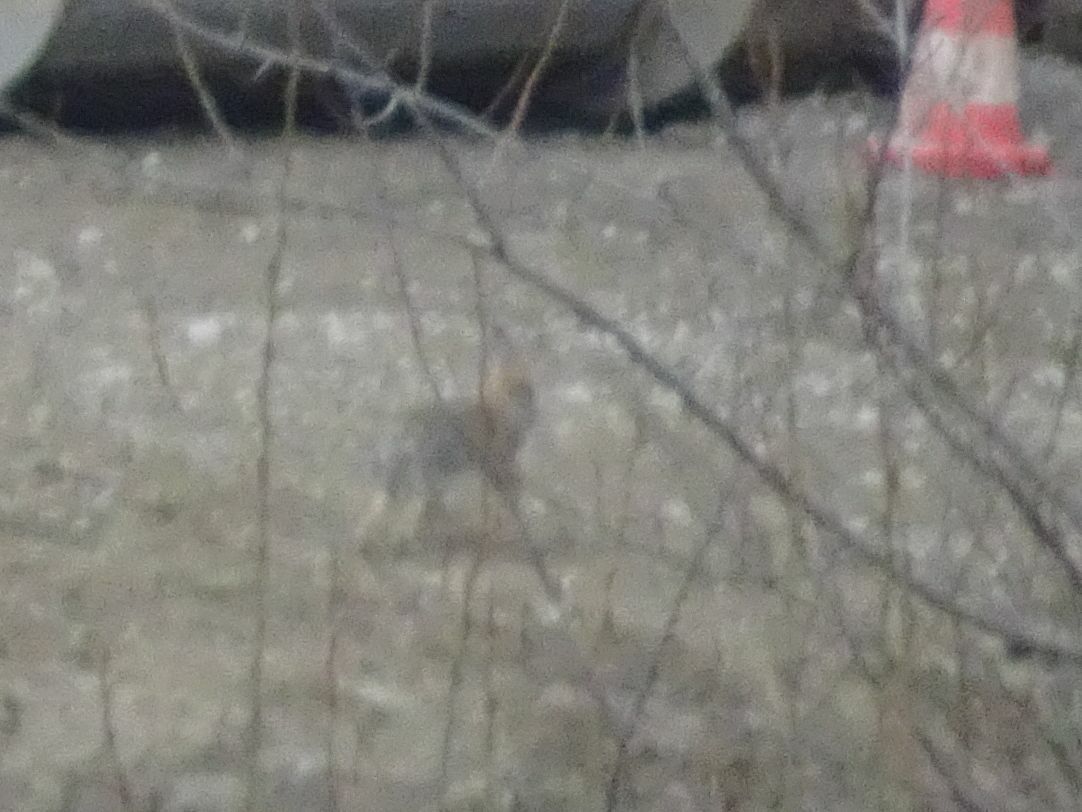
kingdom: Animalia
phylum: Chordata
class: Mammalia
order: Lagomorpha
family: Leporidae
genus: Oryctolagus
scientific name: Oryctolagus cuniculus
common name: European rabbit
